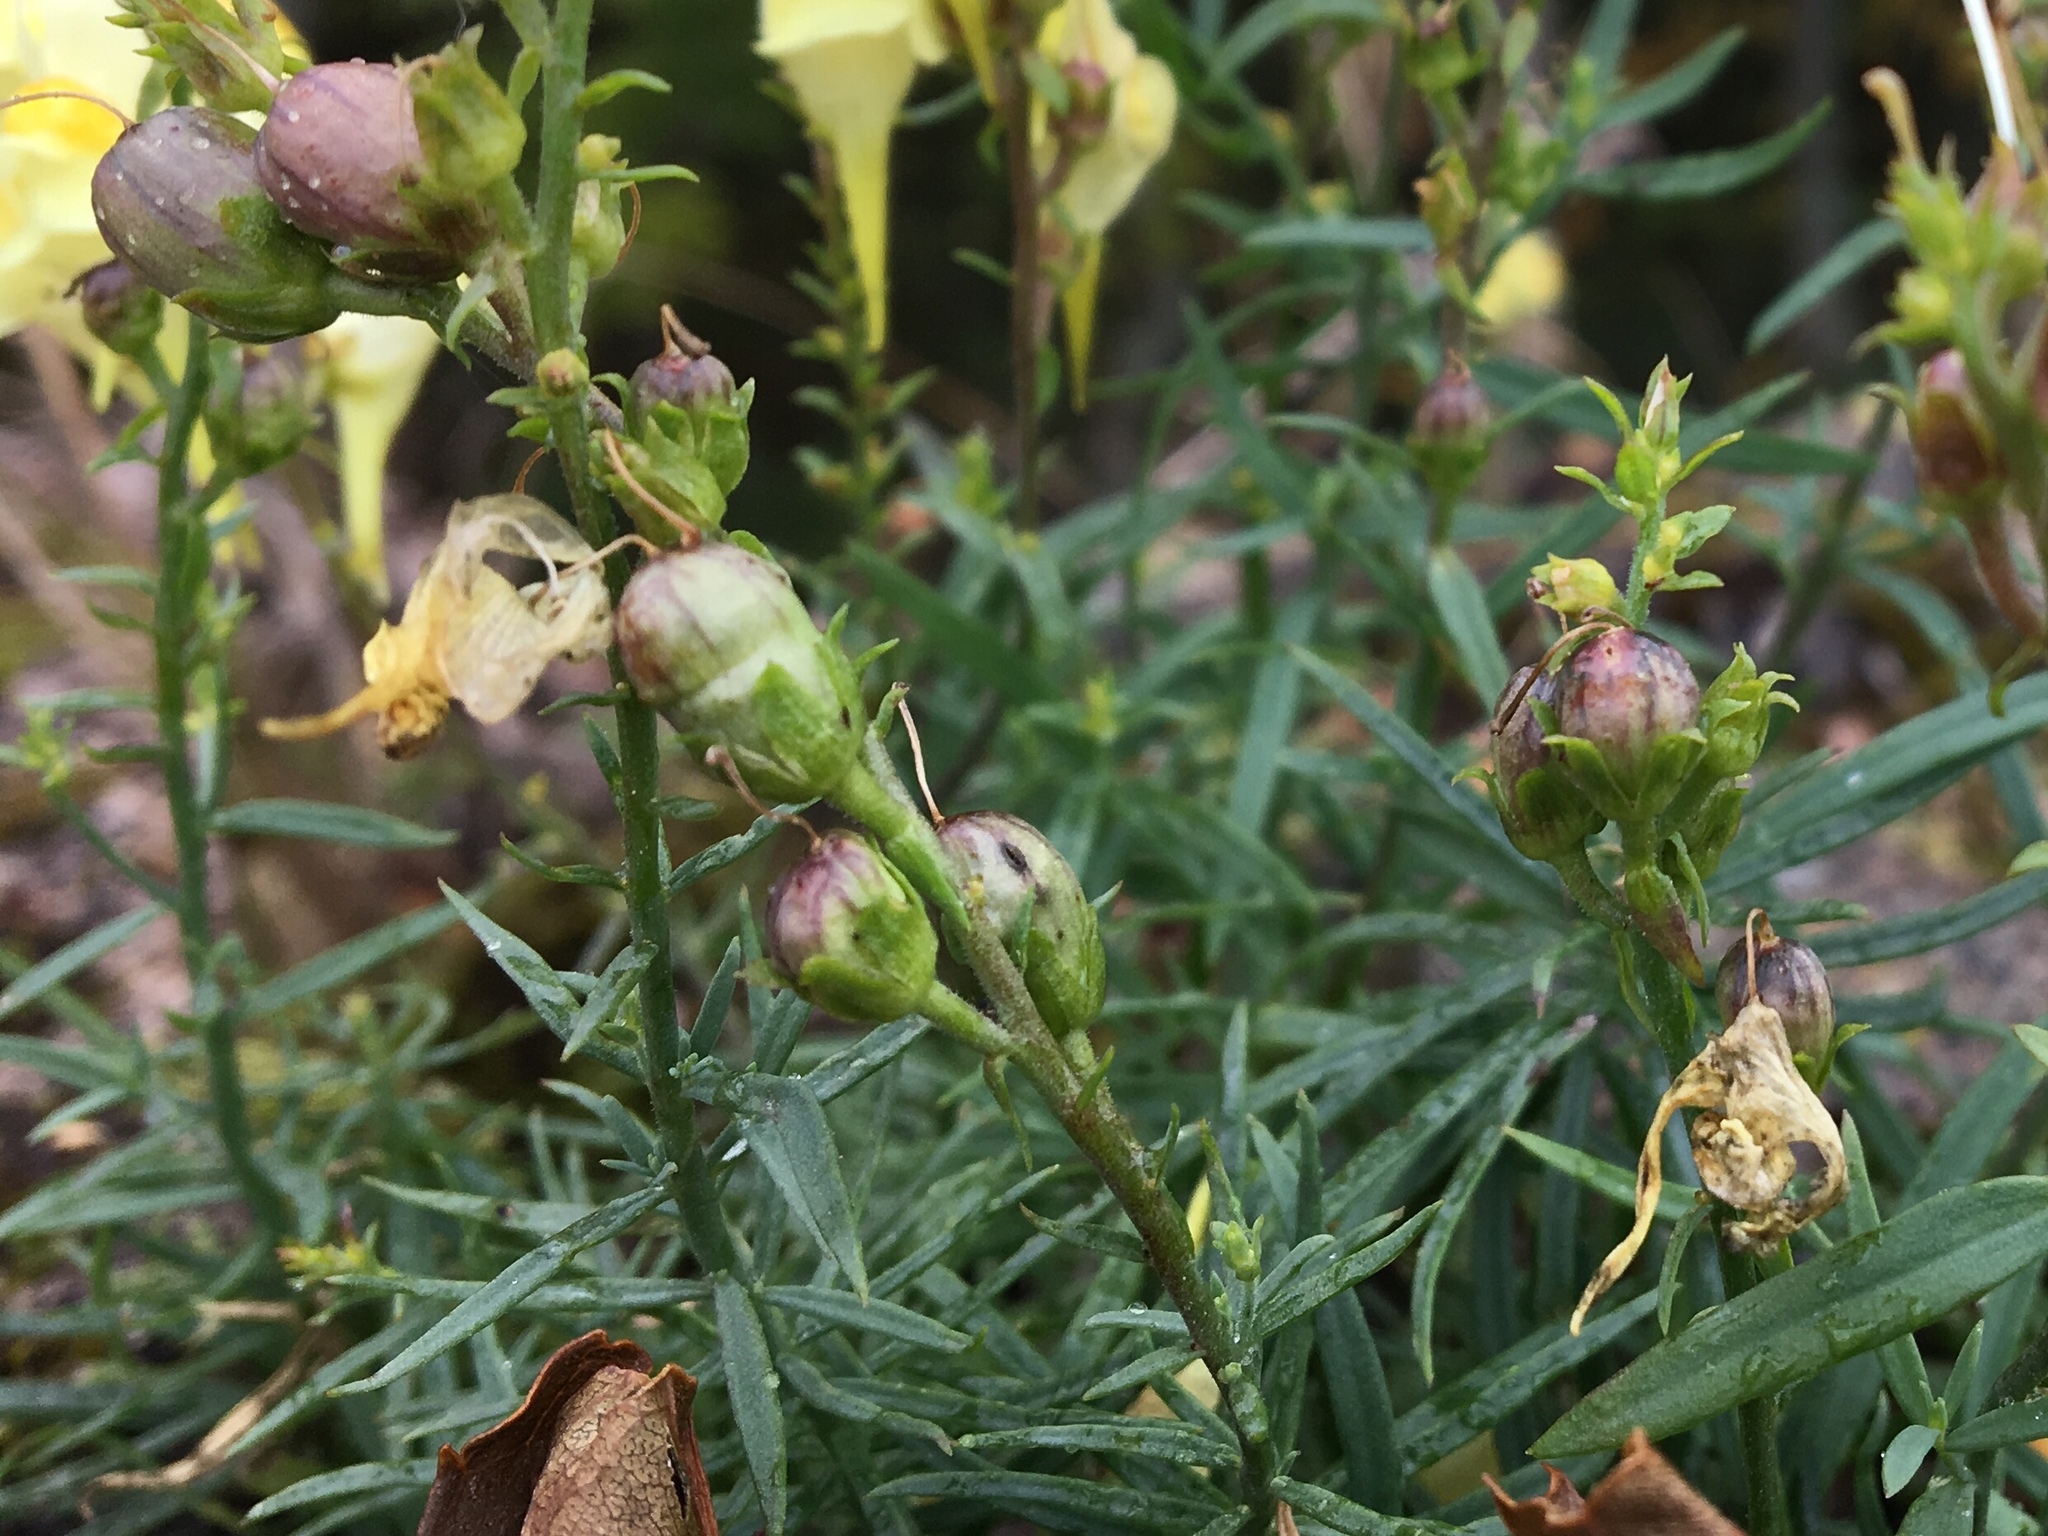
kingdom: Plantae
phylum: Tracheophyta
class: Magnoliopsida
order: Lamiales
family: Plantaginaceae
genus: Linaria
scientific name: Linaria vulgaris
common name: Butter and eggs
